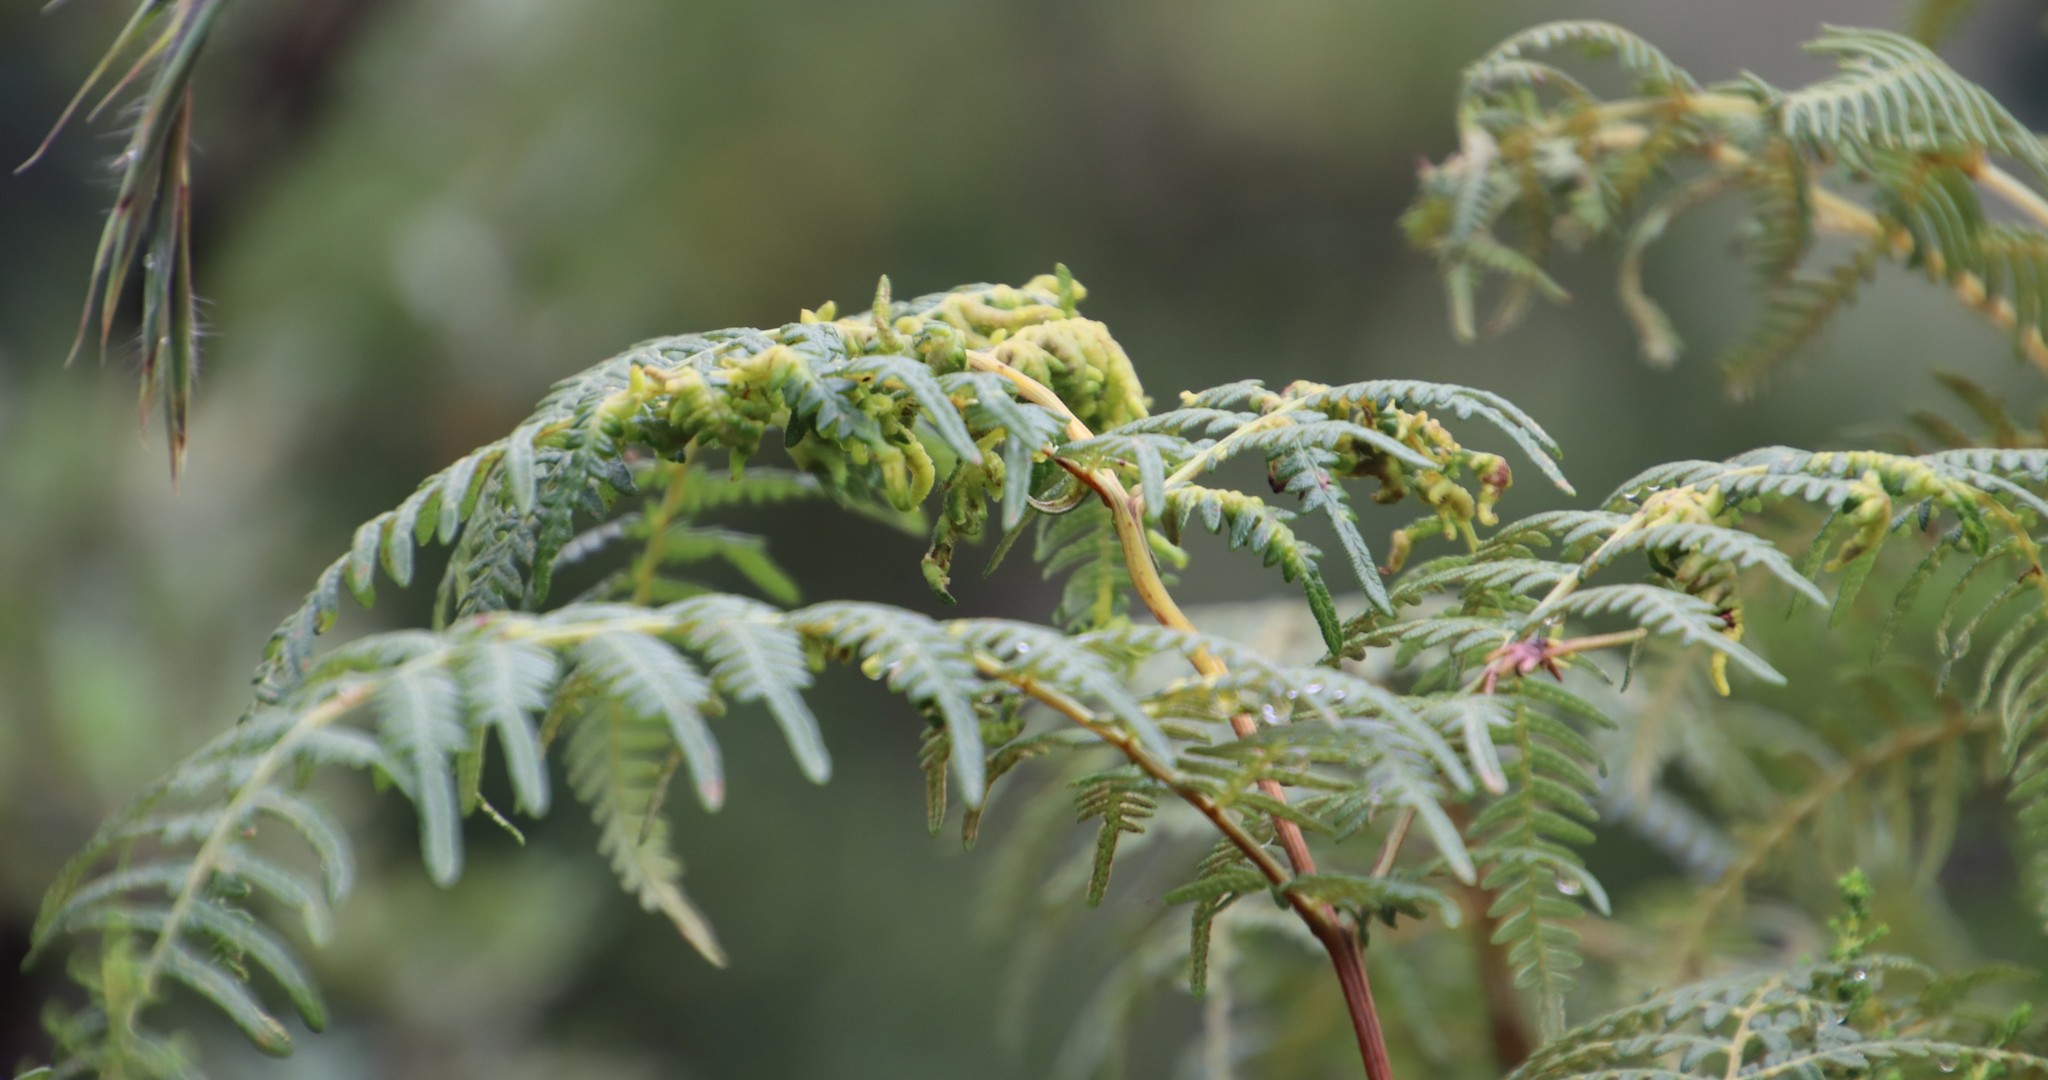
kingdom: Plantae
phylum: Tracheophyta
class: Polypodiopsida
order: Polypodiales
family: Dennstaedtiaceae
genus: Pteridium
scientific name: Pteridium aquilinum
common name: Bracken
